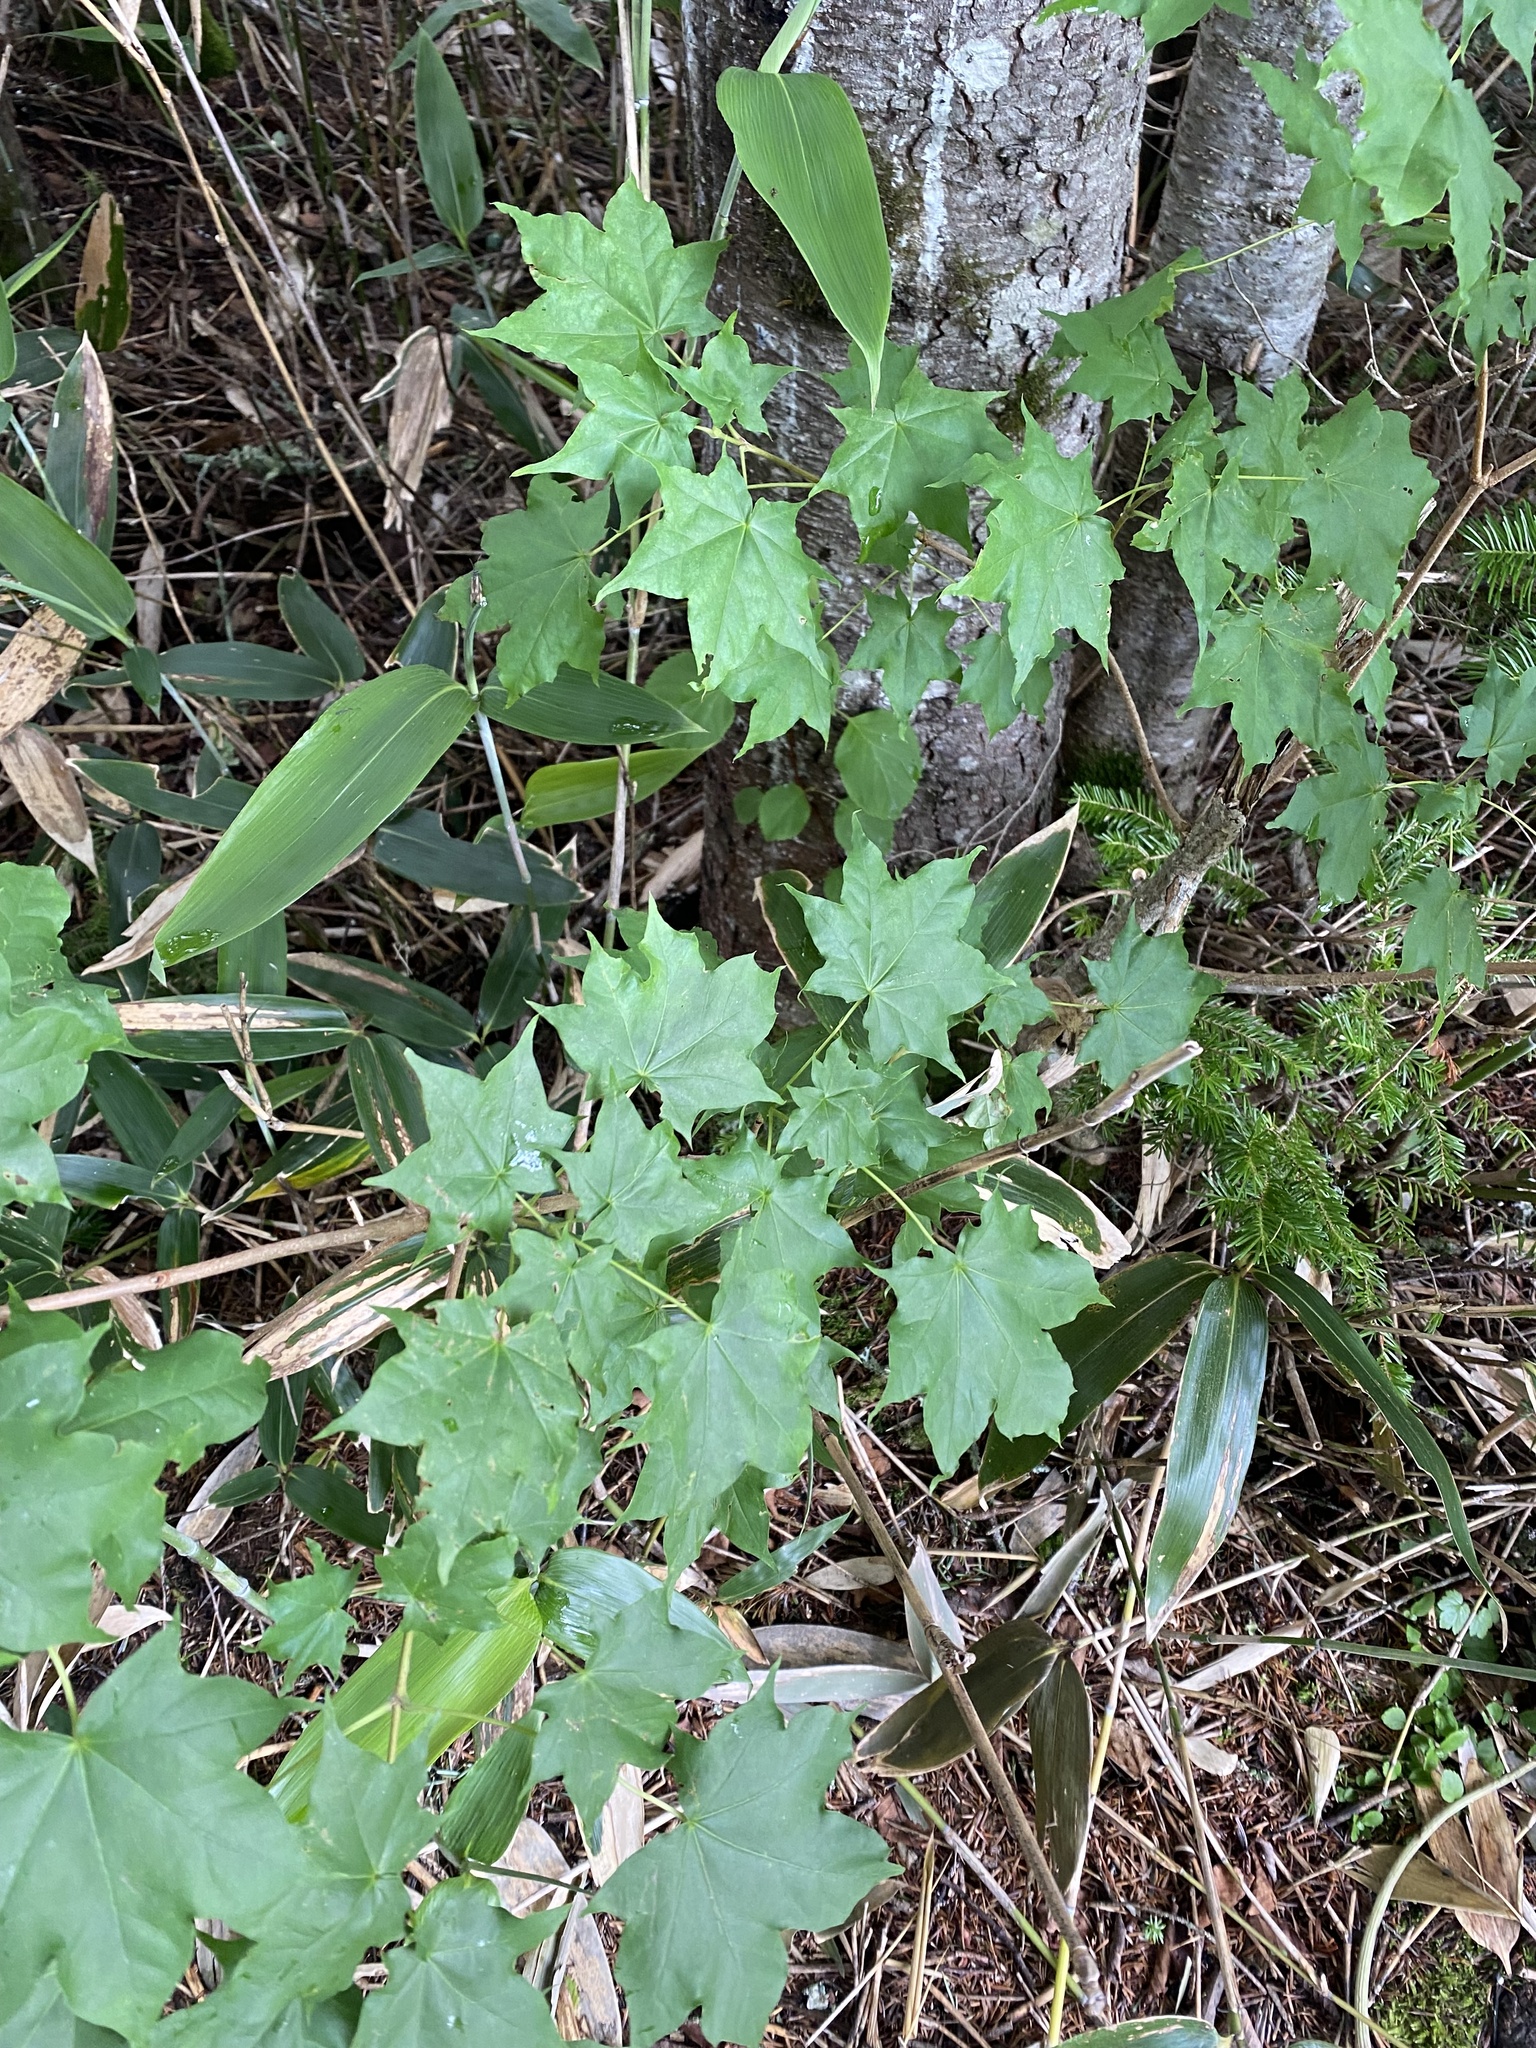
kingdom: Plantae
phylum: Tracheophyta
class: Magnoliopsida
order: Sapindales
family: Sapindaceae
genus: Acer
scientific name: Acer pictum
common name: The painted maple
